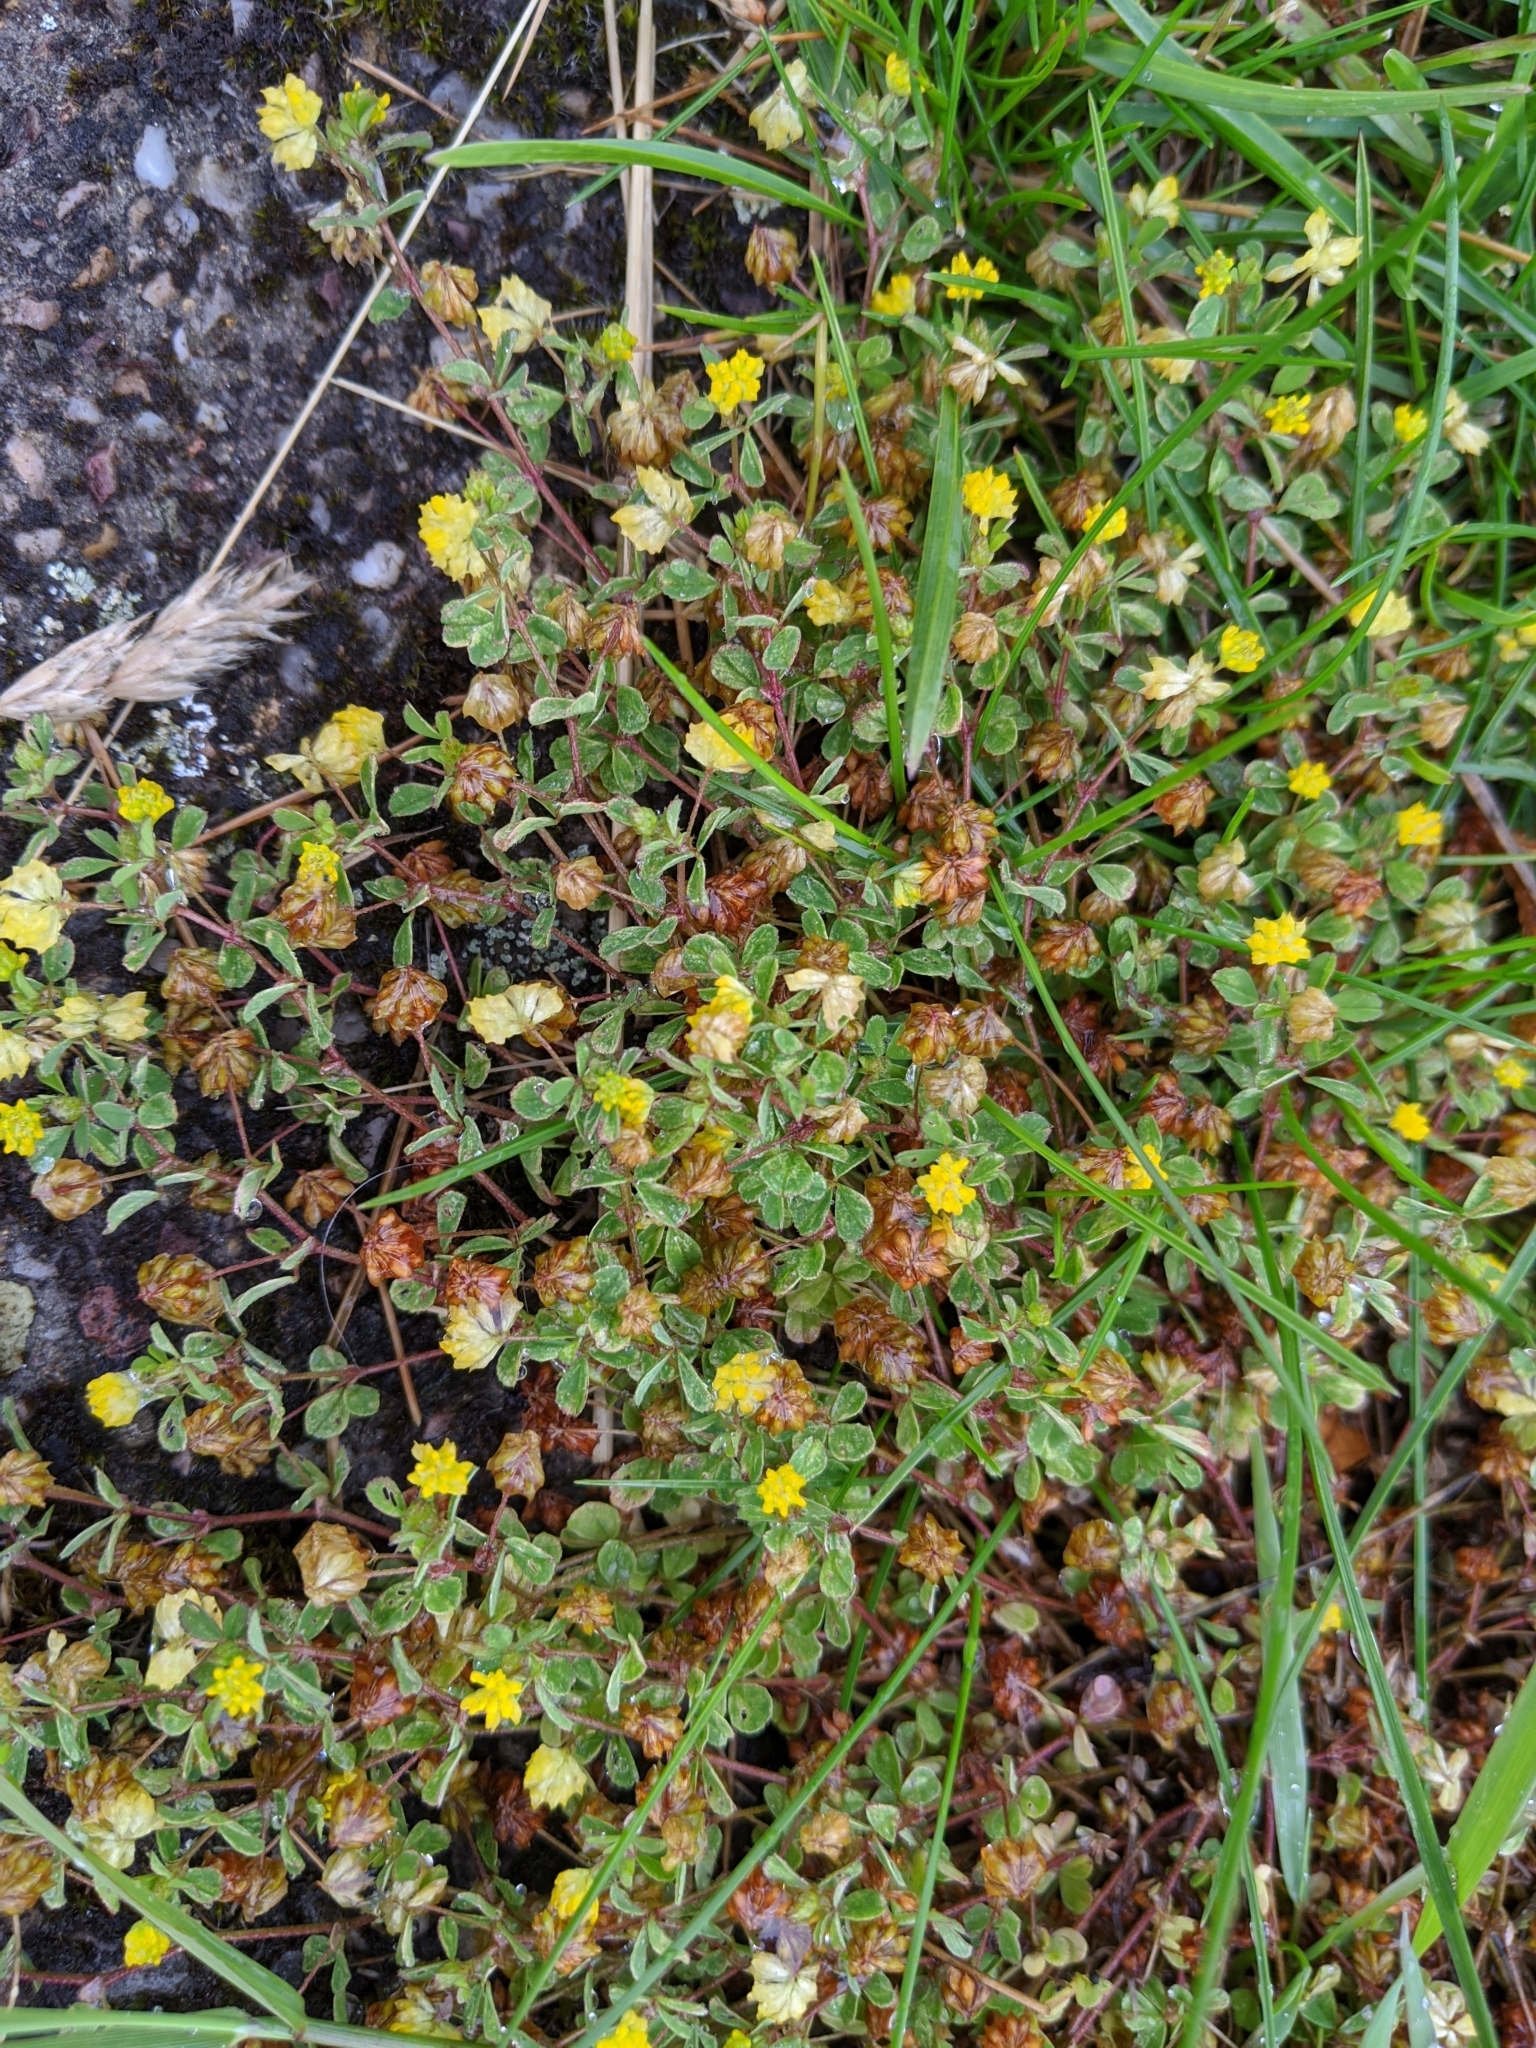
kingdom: Plantae
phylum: Tracheophyta
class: Magnoliopsida
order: Fabales
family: Fabaceae
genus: Trifolium
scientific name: Trifolium campestre
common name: Field clover
